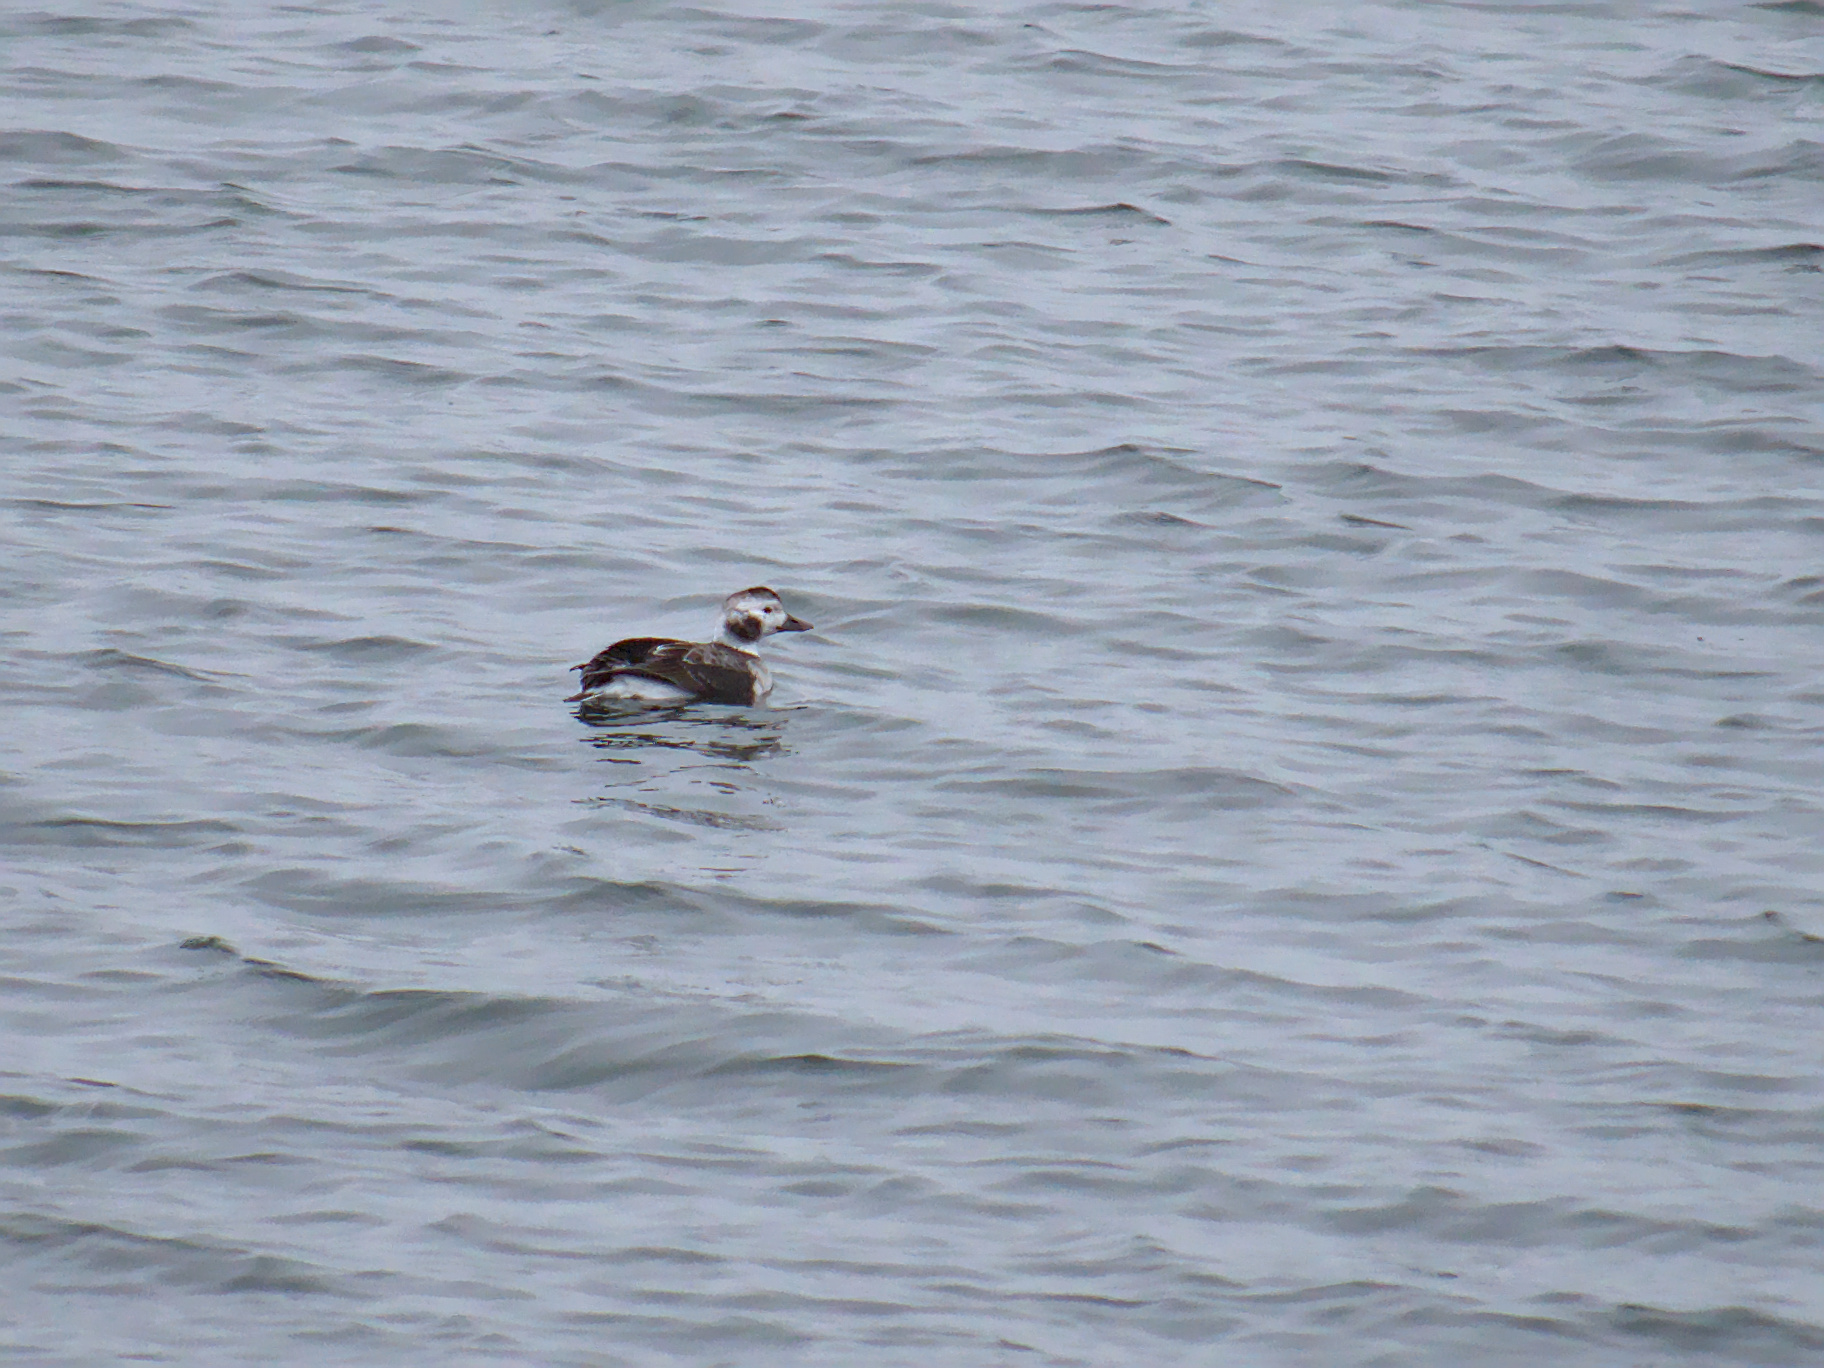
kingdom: Animalia
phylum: Chordata
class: Aves
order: Anseriformes
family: Anatidae
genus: Clangula
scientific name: Clangula hyemalis
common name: Long-tailed duck
